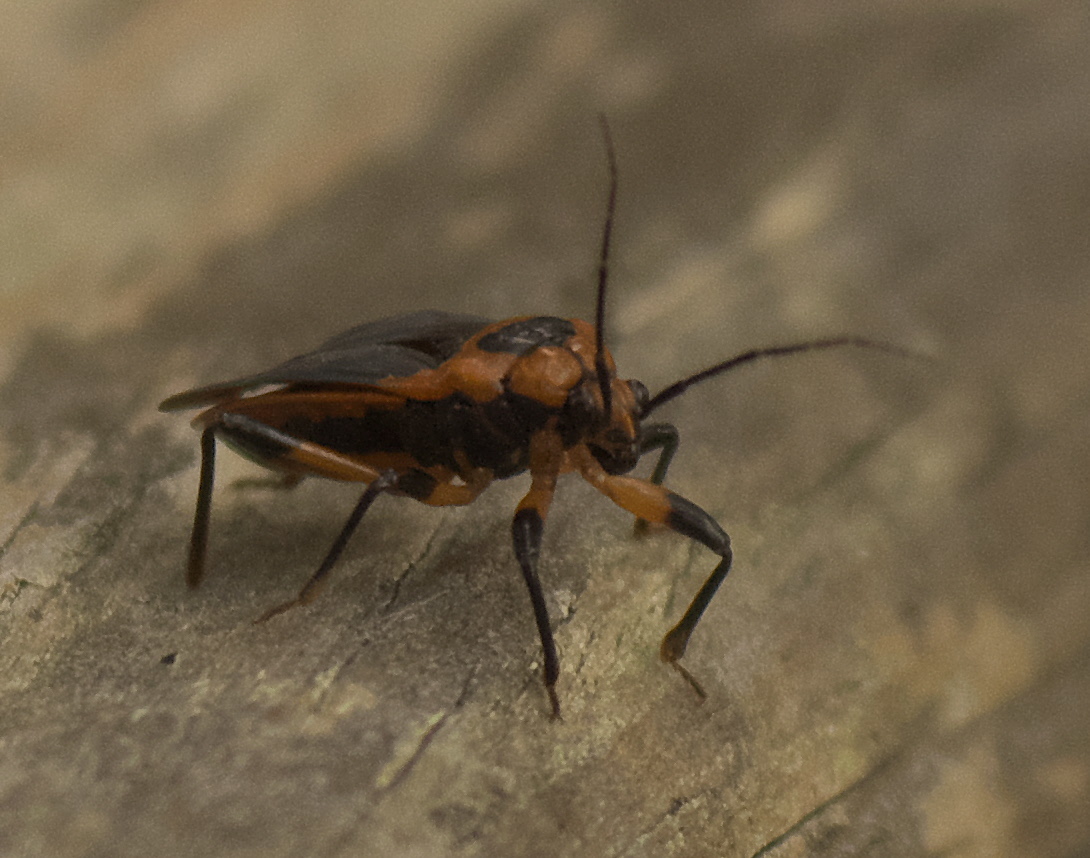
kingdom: Animalia
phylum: Arthropoda
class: Insecta
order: Hemiptera
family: Reduviidae
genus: Rhiginia
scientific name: Rhiginia cruciata
